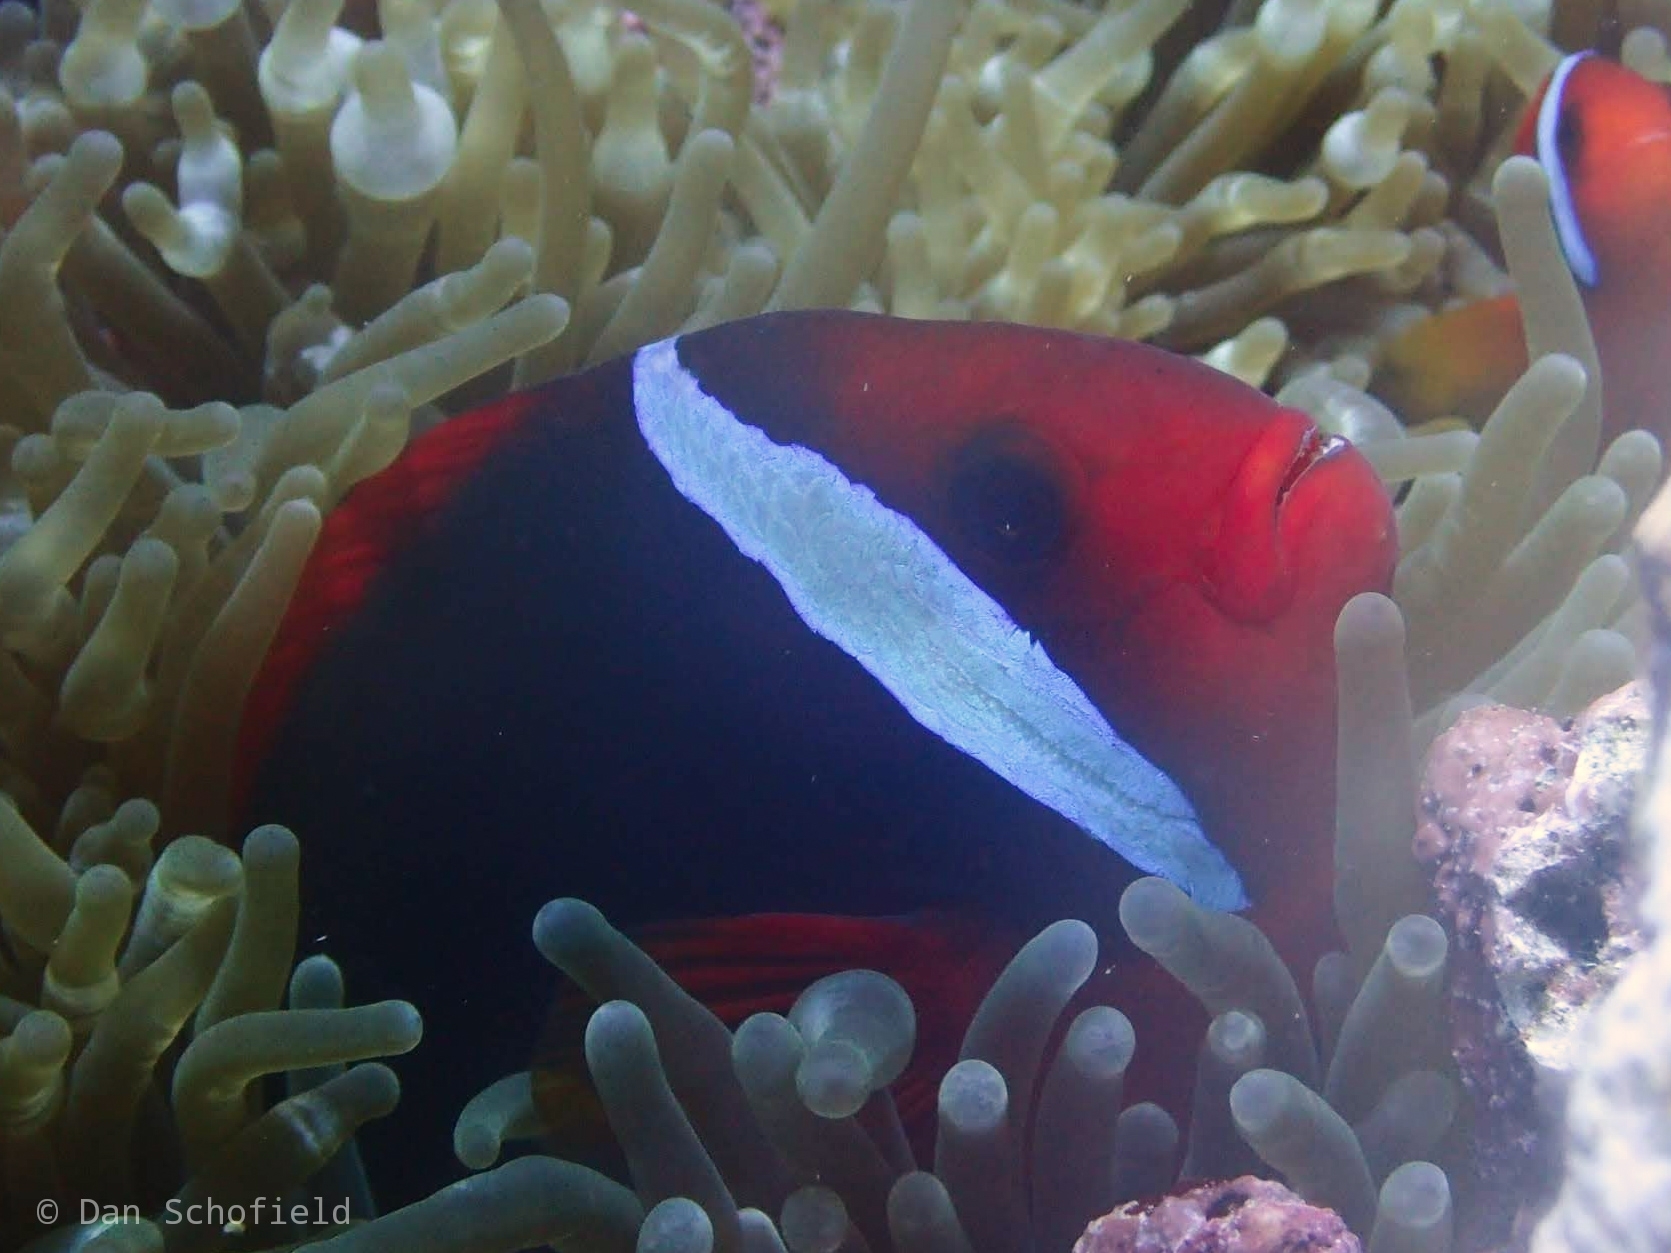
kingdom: Animalia
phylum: Chordata
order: Perciformes
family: Pomacentridae
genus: Amphiprion
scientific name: Amphiprion frenatus
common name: Tomato anemonefish
